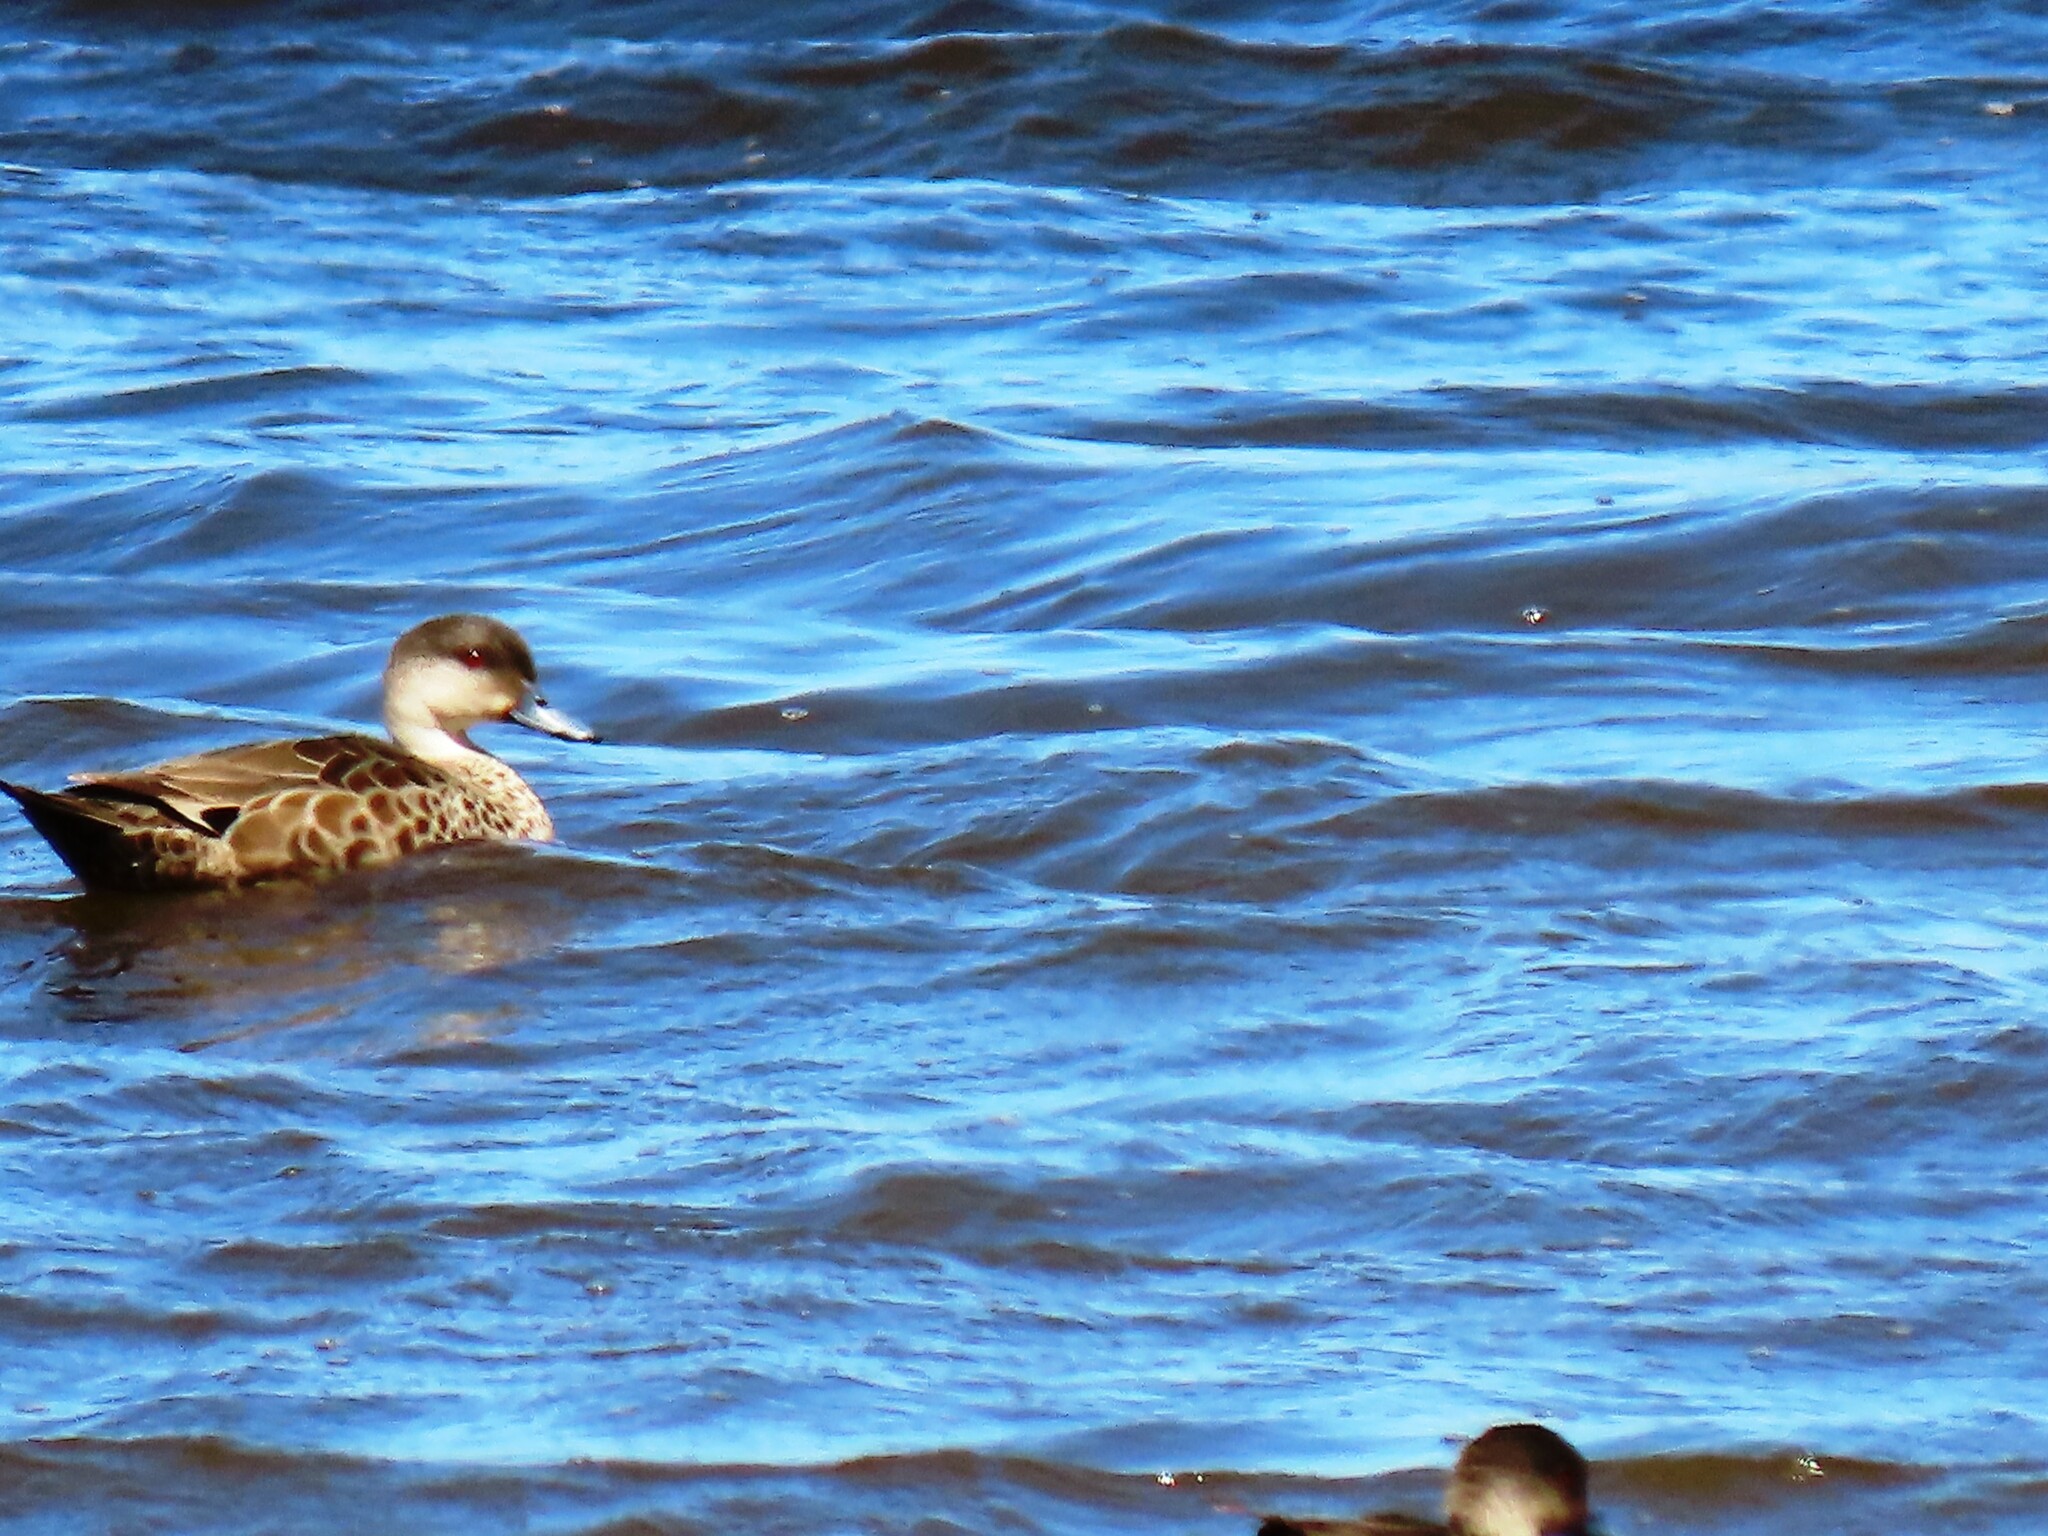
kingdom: Animalia
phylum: Chordata
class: Aves
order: Anseriformes
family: Anatidae
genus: Anas
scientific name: Anas gracilis
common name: Grey teal
